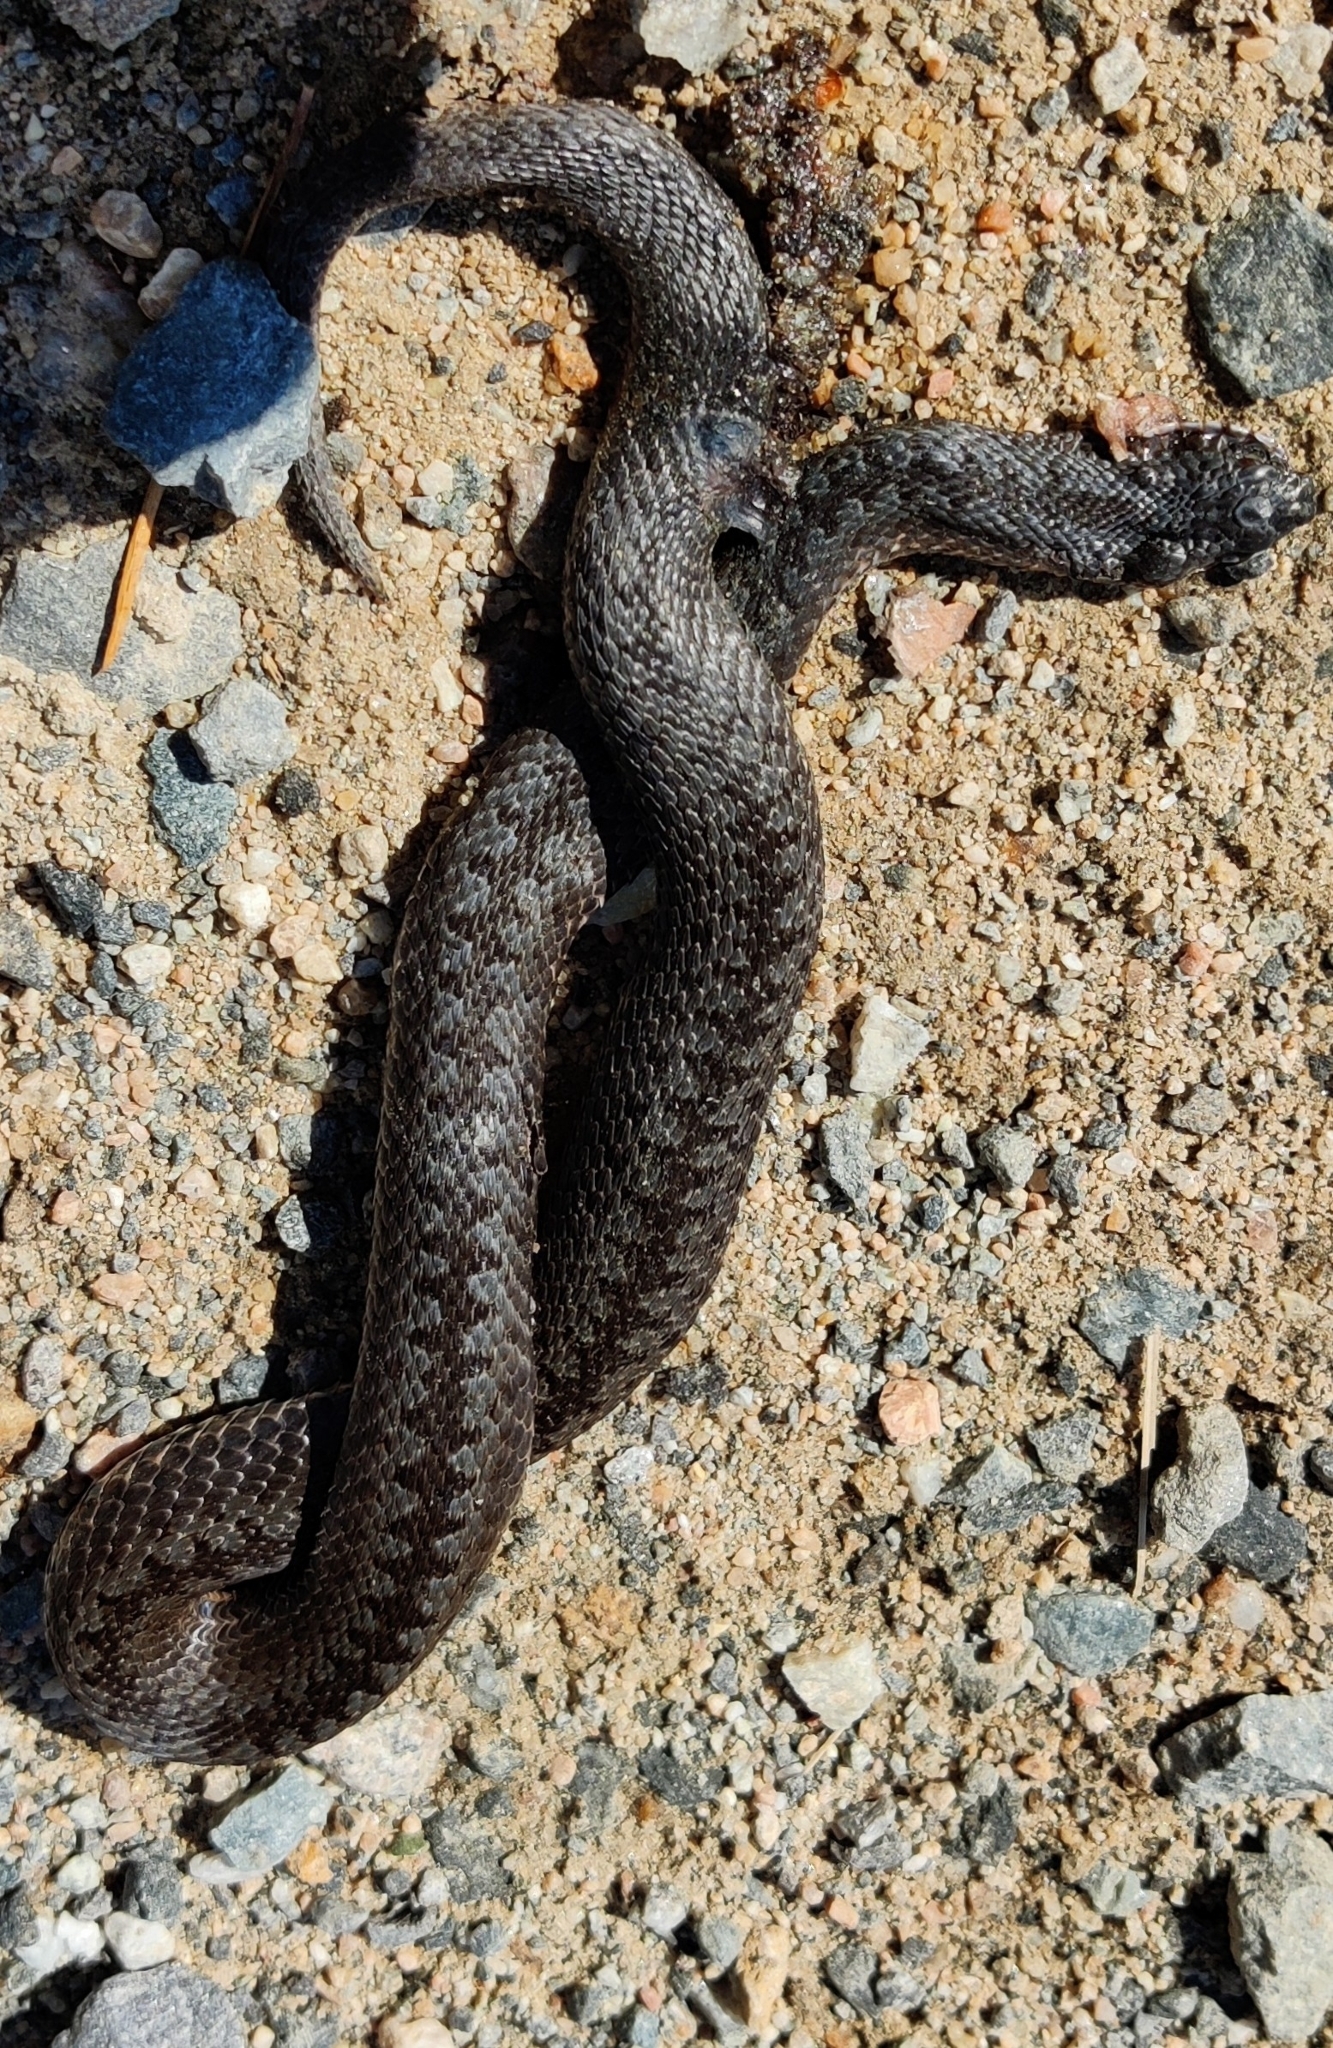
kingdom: Animalia
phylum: Chordata
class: Squamata
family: Viperidae
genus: Vipera
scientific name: Vipera berus
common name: Adder
